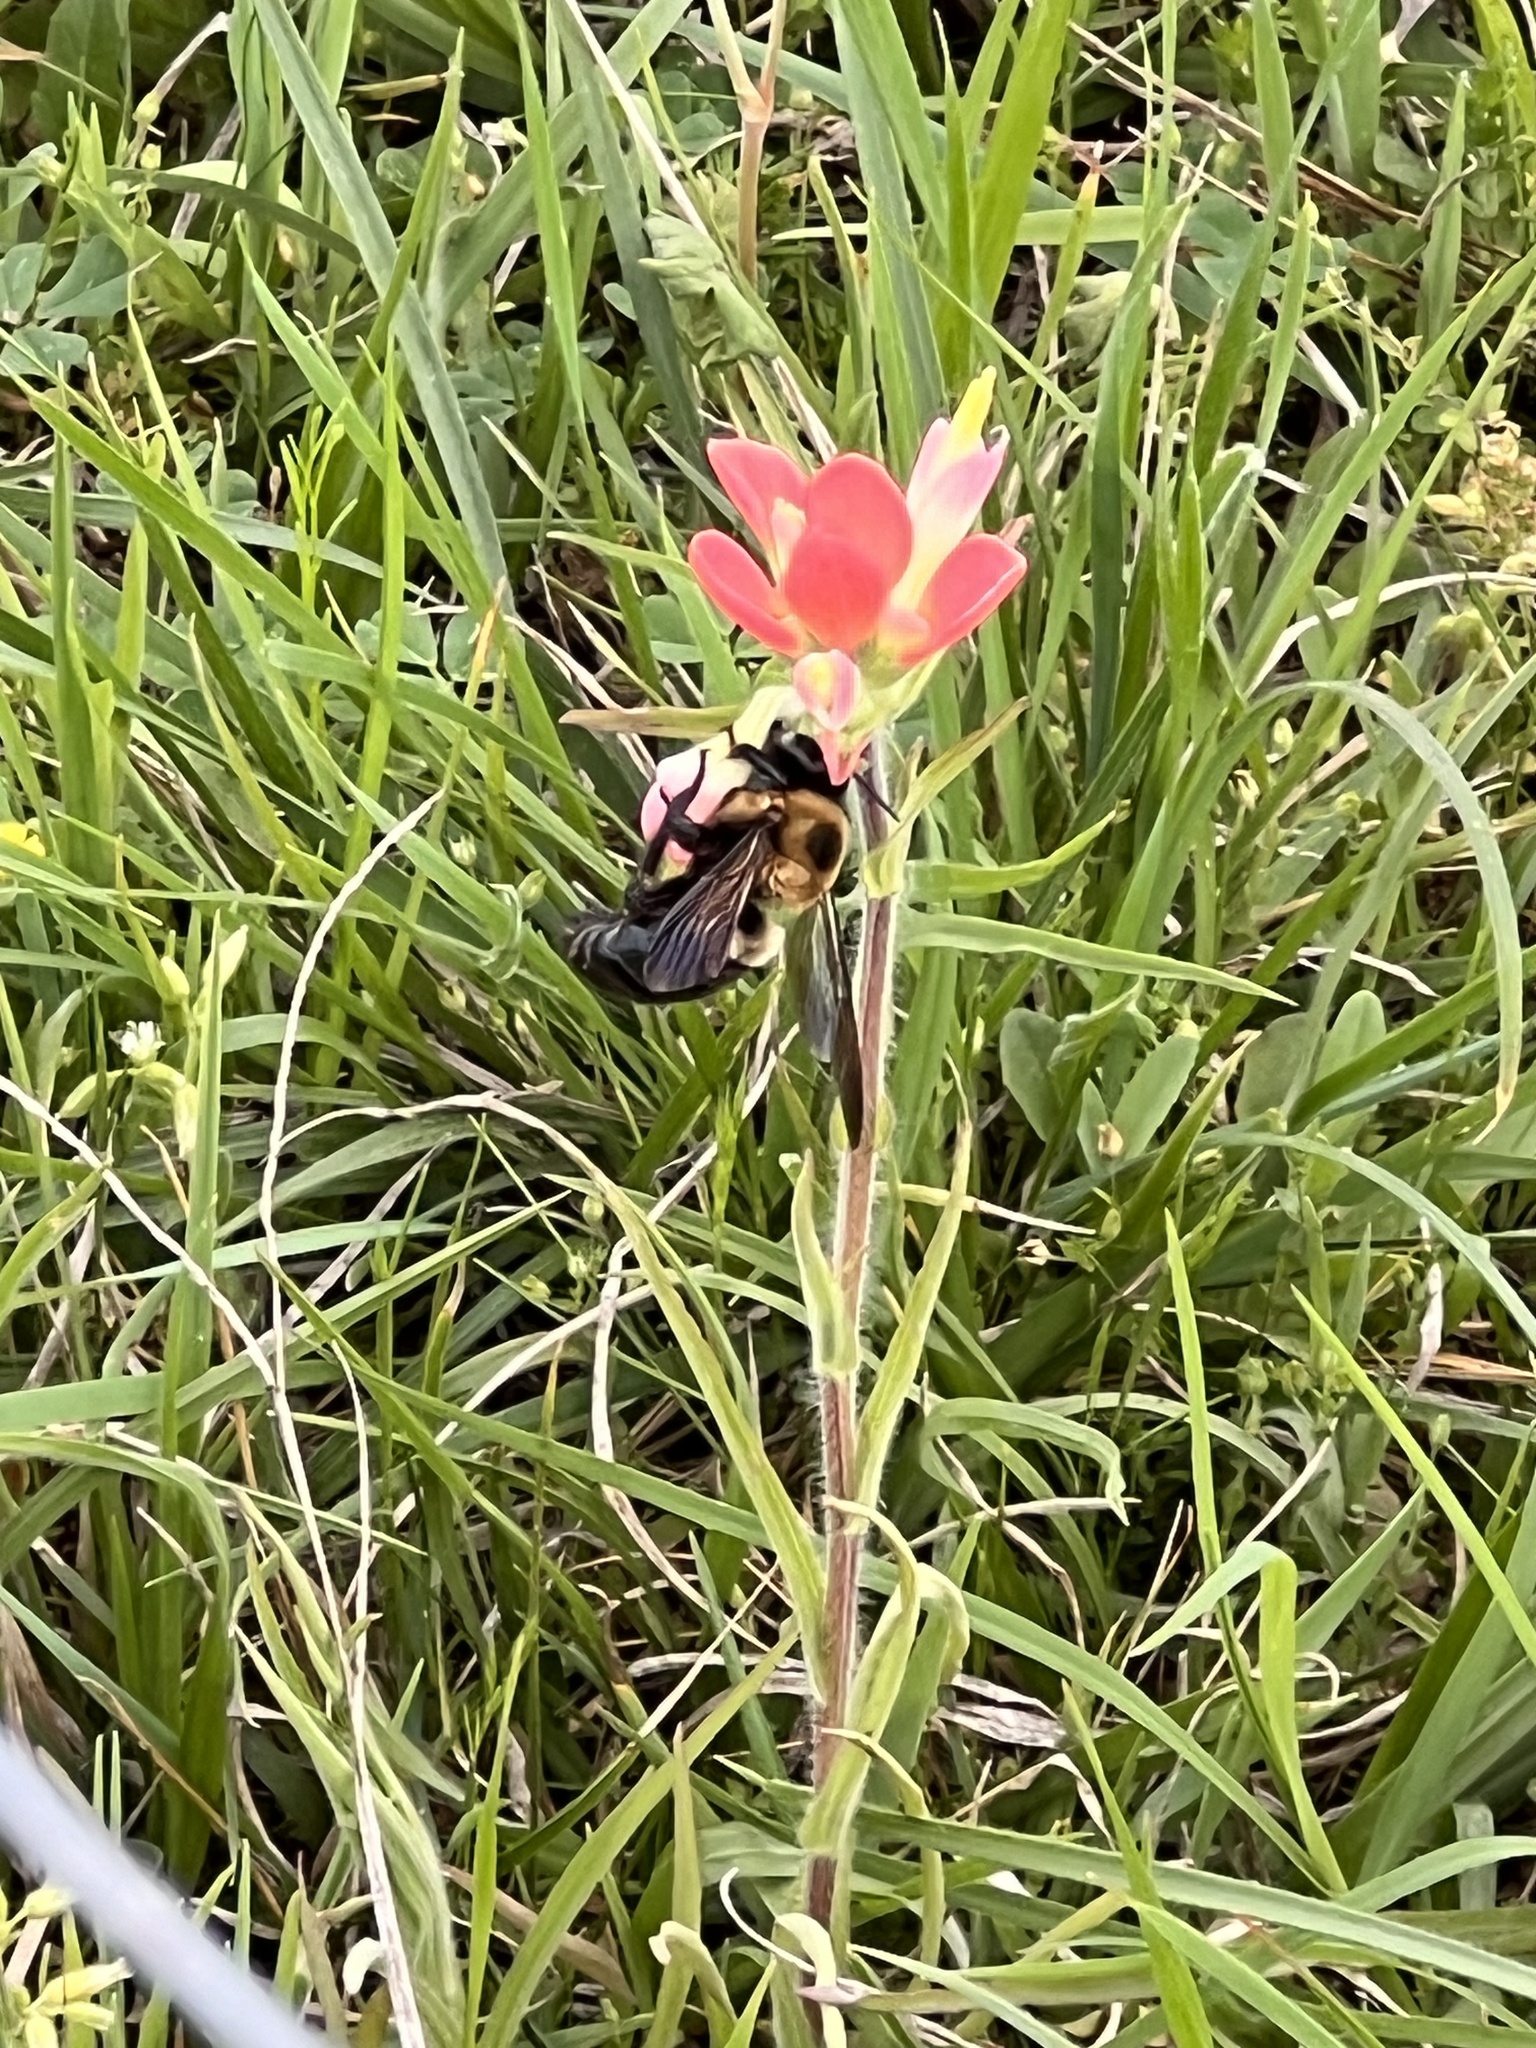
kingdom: Animalia
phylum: Arthropoda
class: Insecta
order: Hymenoptera
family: Apidae
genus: Xylocopa
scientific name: Xylocopa virginica
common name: Carpenter bee
